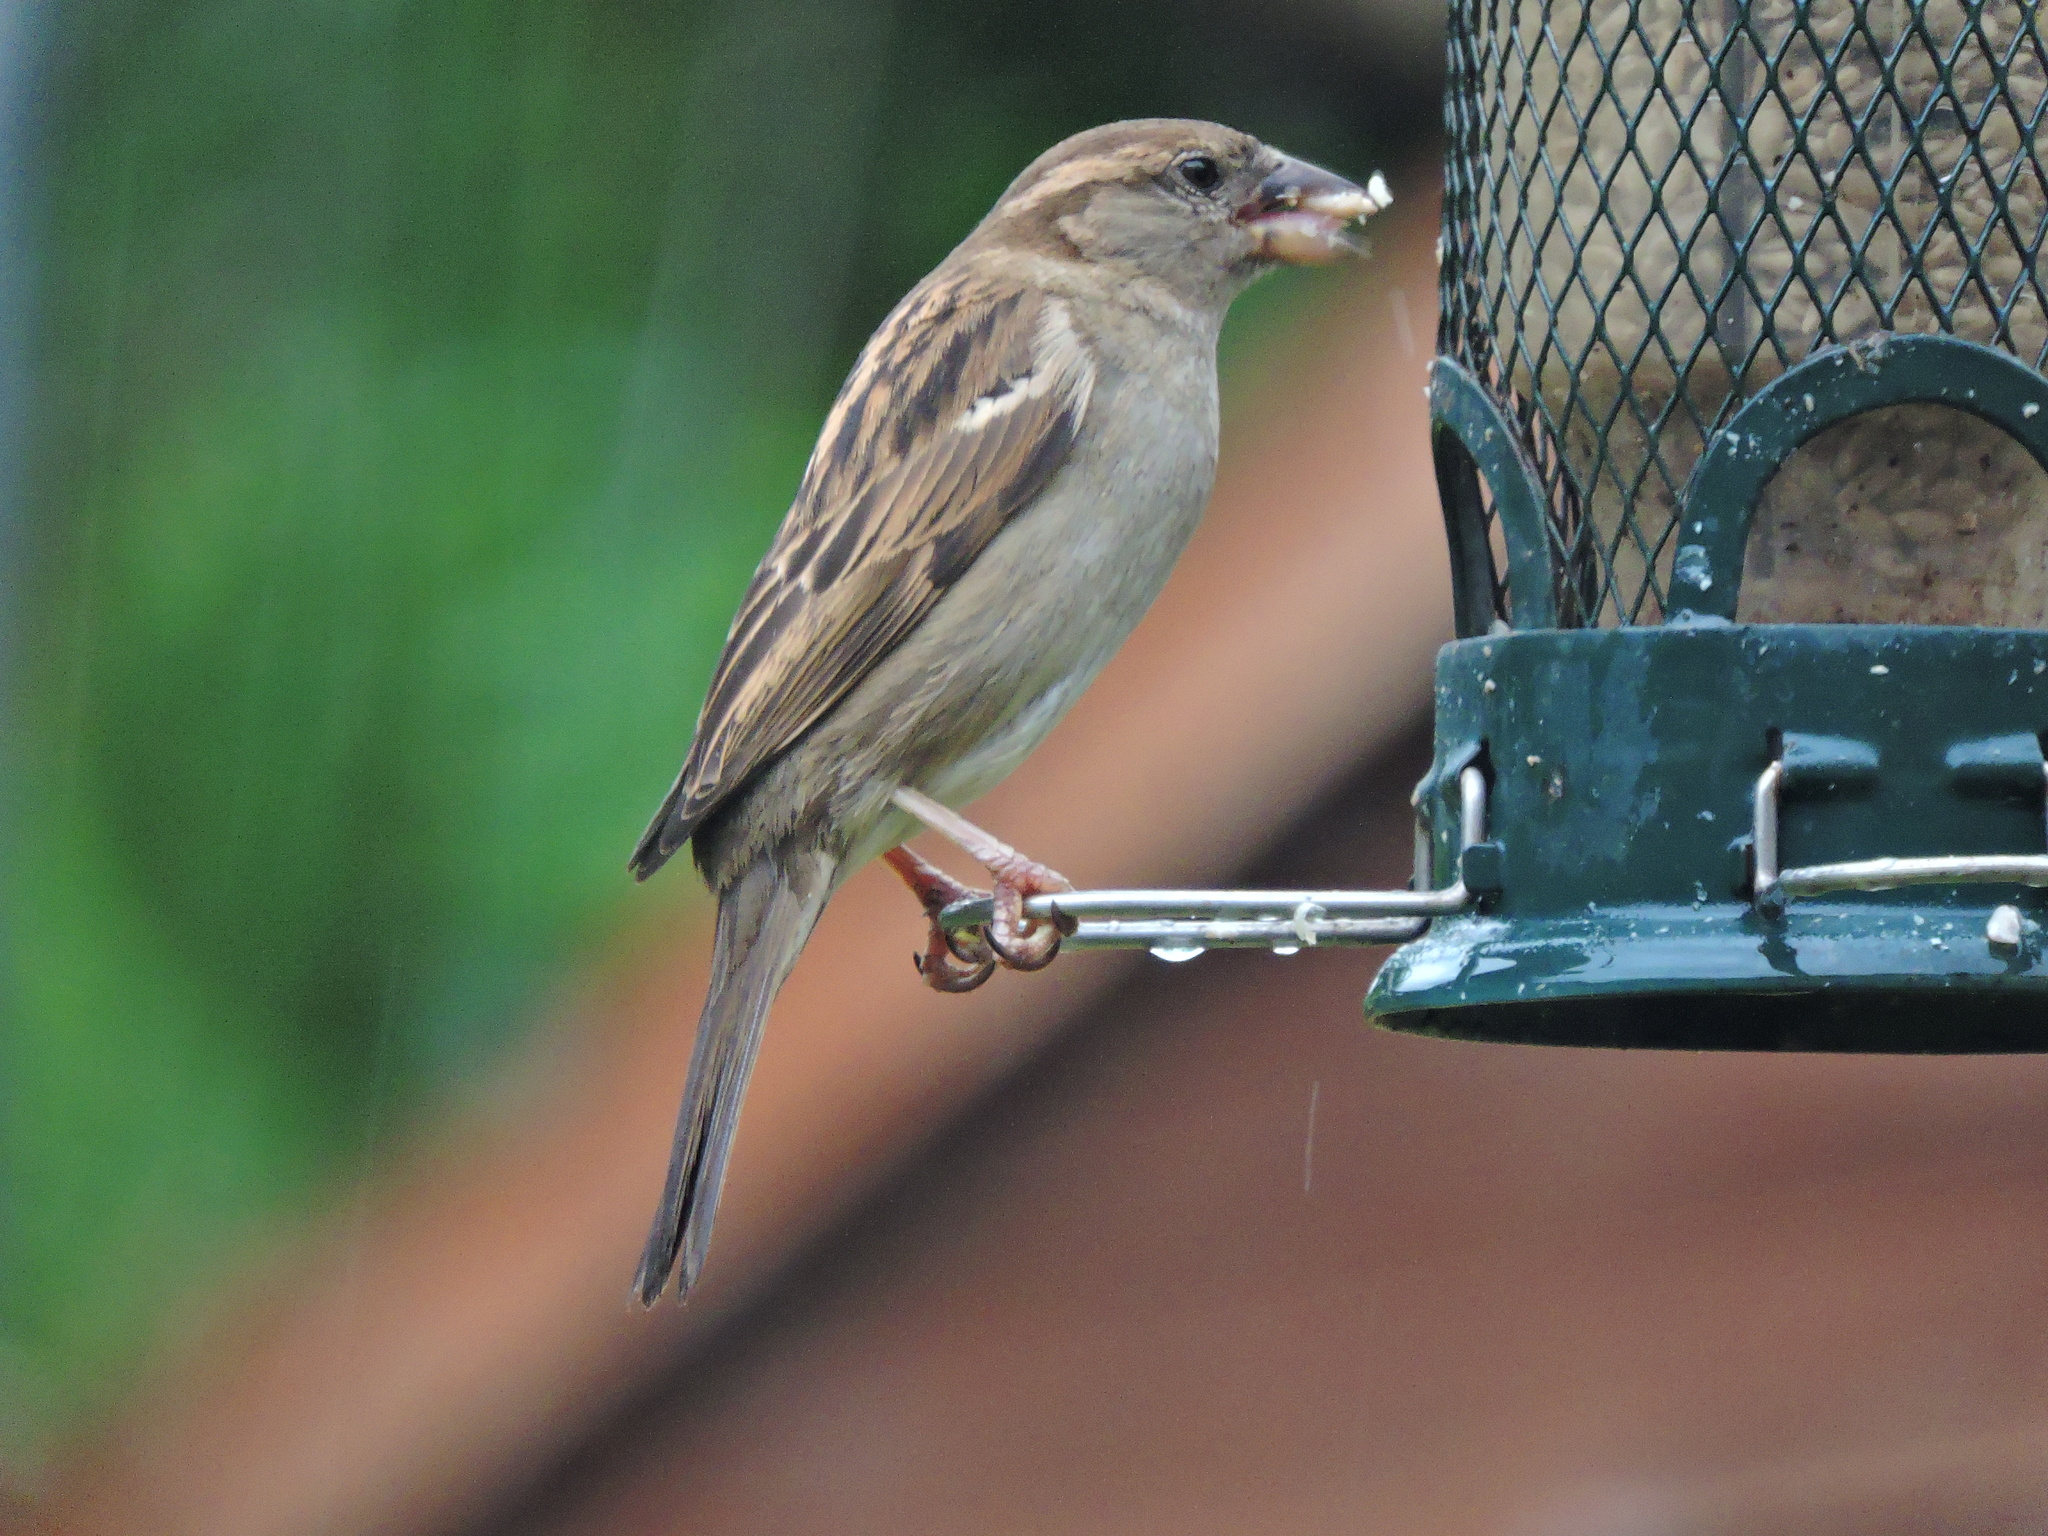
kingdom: Animalia
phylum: Chordata
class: Aves
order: Passeriformes
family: Passeridae
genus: Passer
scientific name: Passer domesticus
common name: House sparrow
